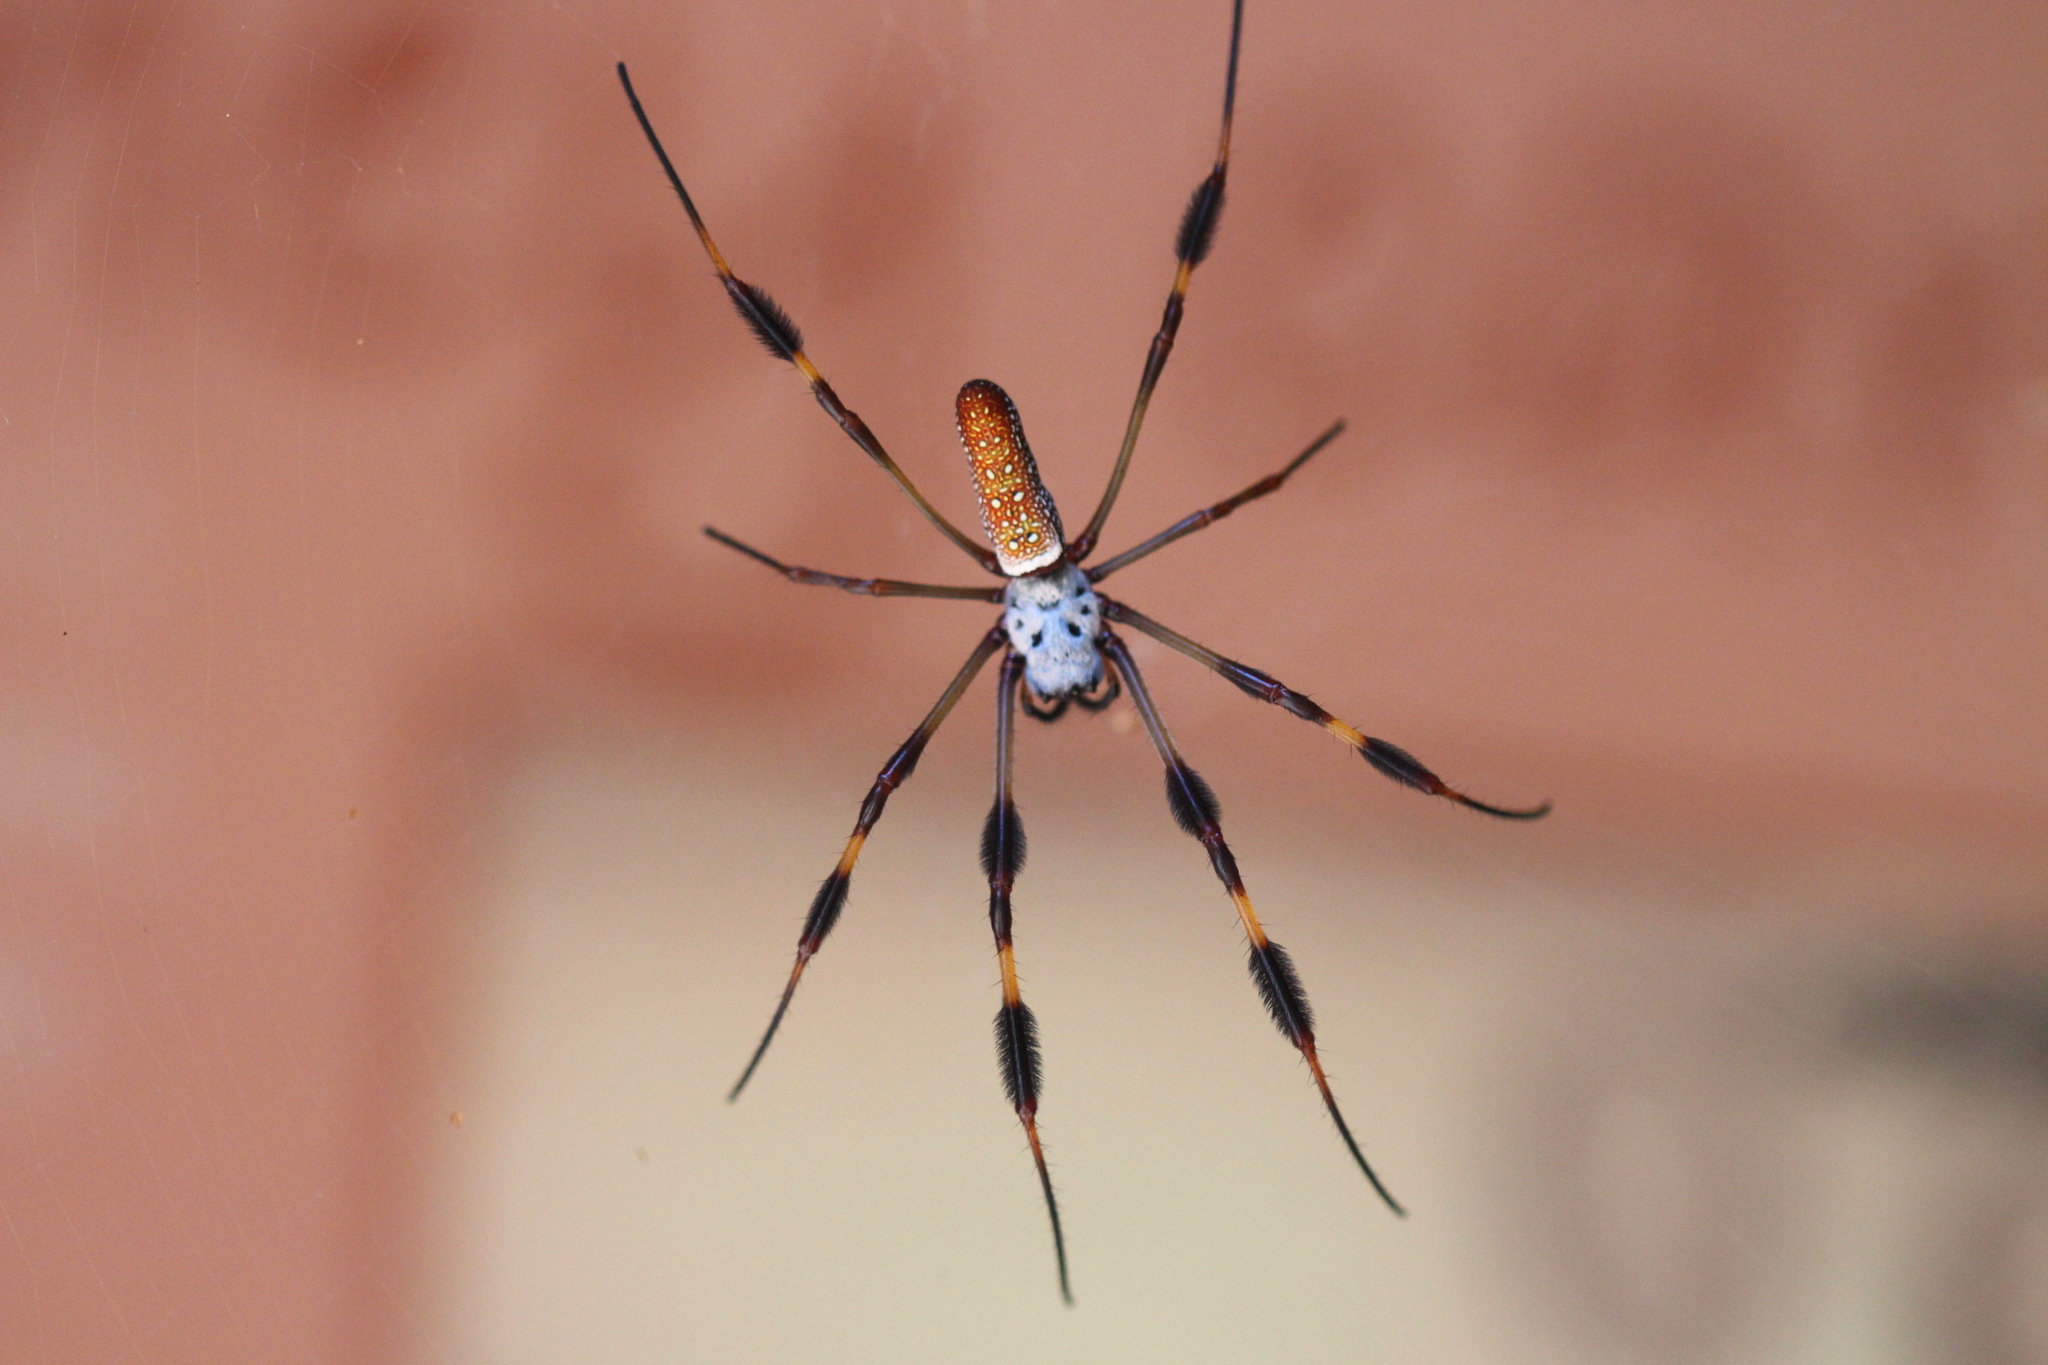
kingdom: Animalia
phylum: Arthropoda
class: Arachnida
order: Araneae
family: Araneidae
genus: Trichonephila
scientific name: Trichonephila clavipes
